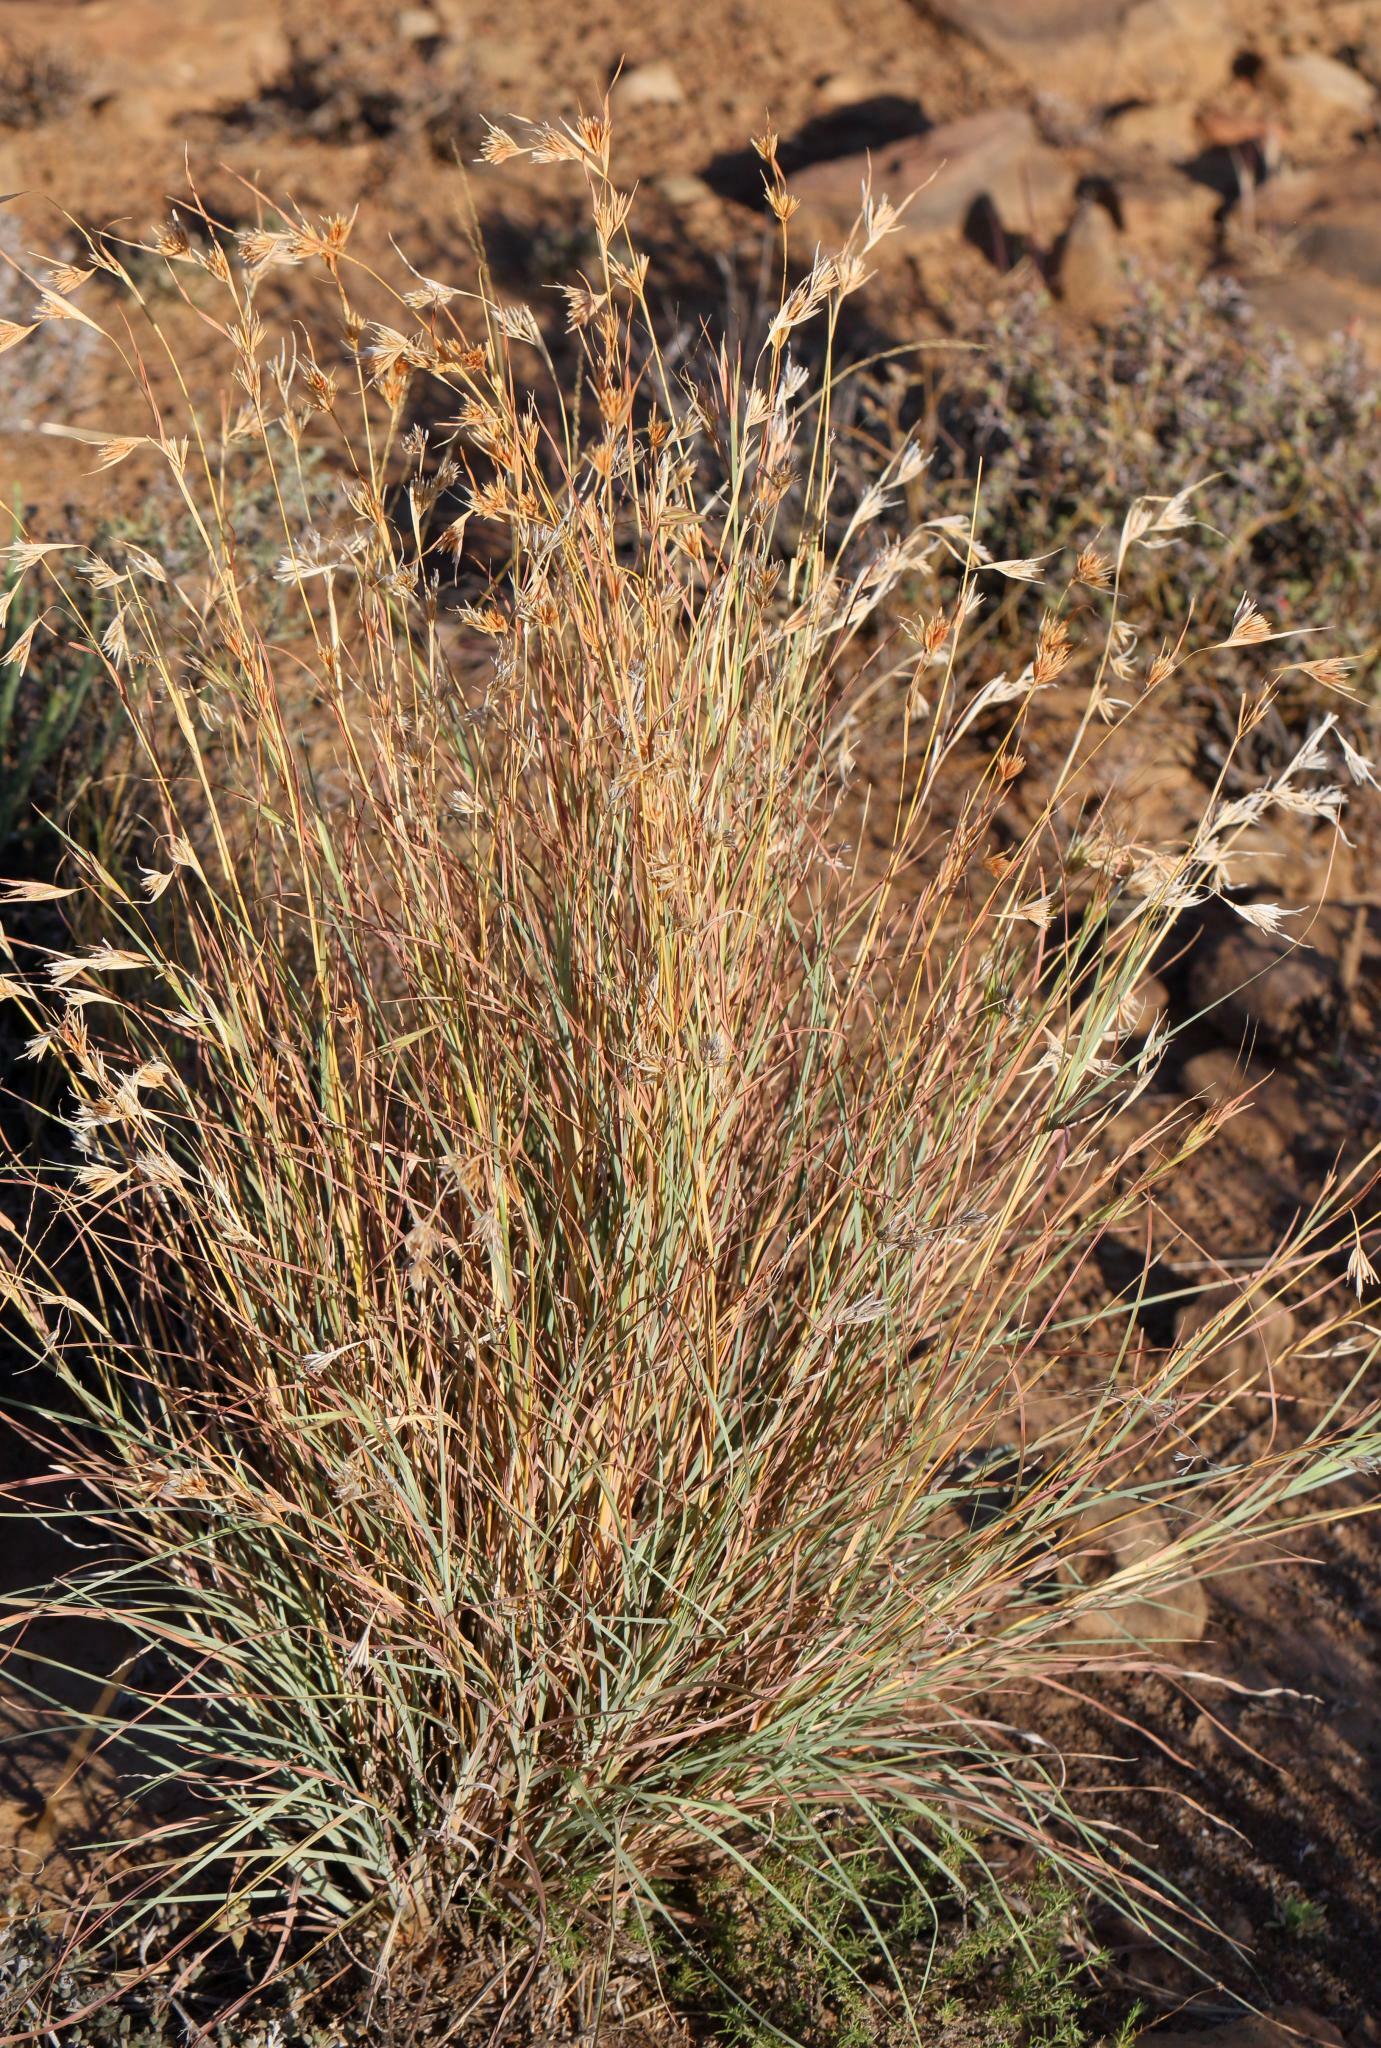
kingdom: Plantae
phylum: Tracheophyta
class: Liliopsida
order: Poales
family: Poaceae
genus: Themeda
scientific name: Themeda triandra
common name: Kangaroo grass
